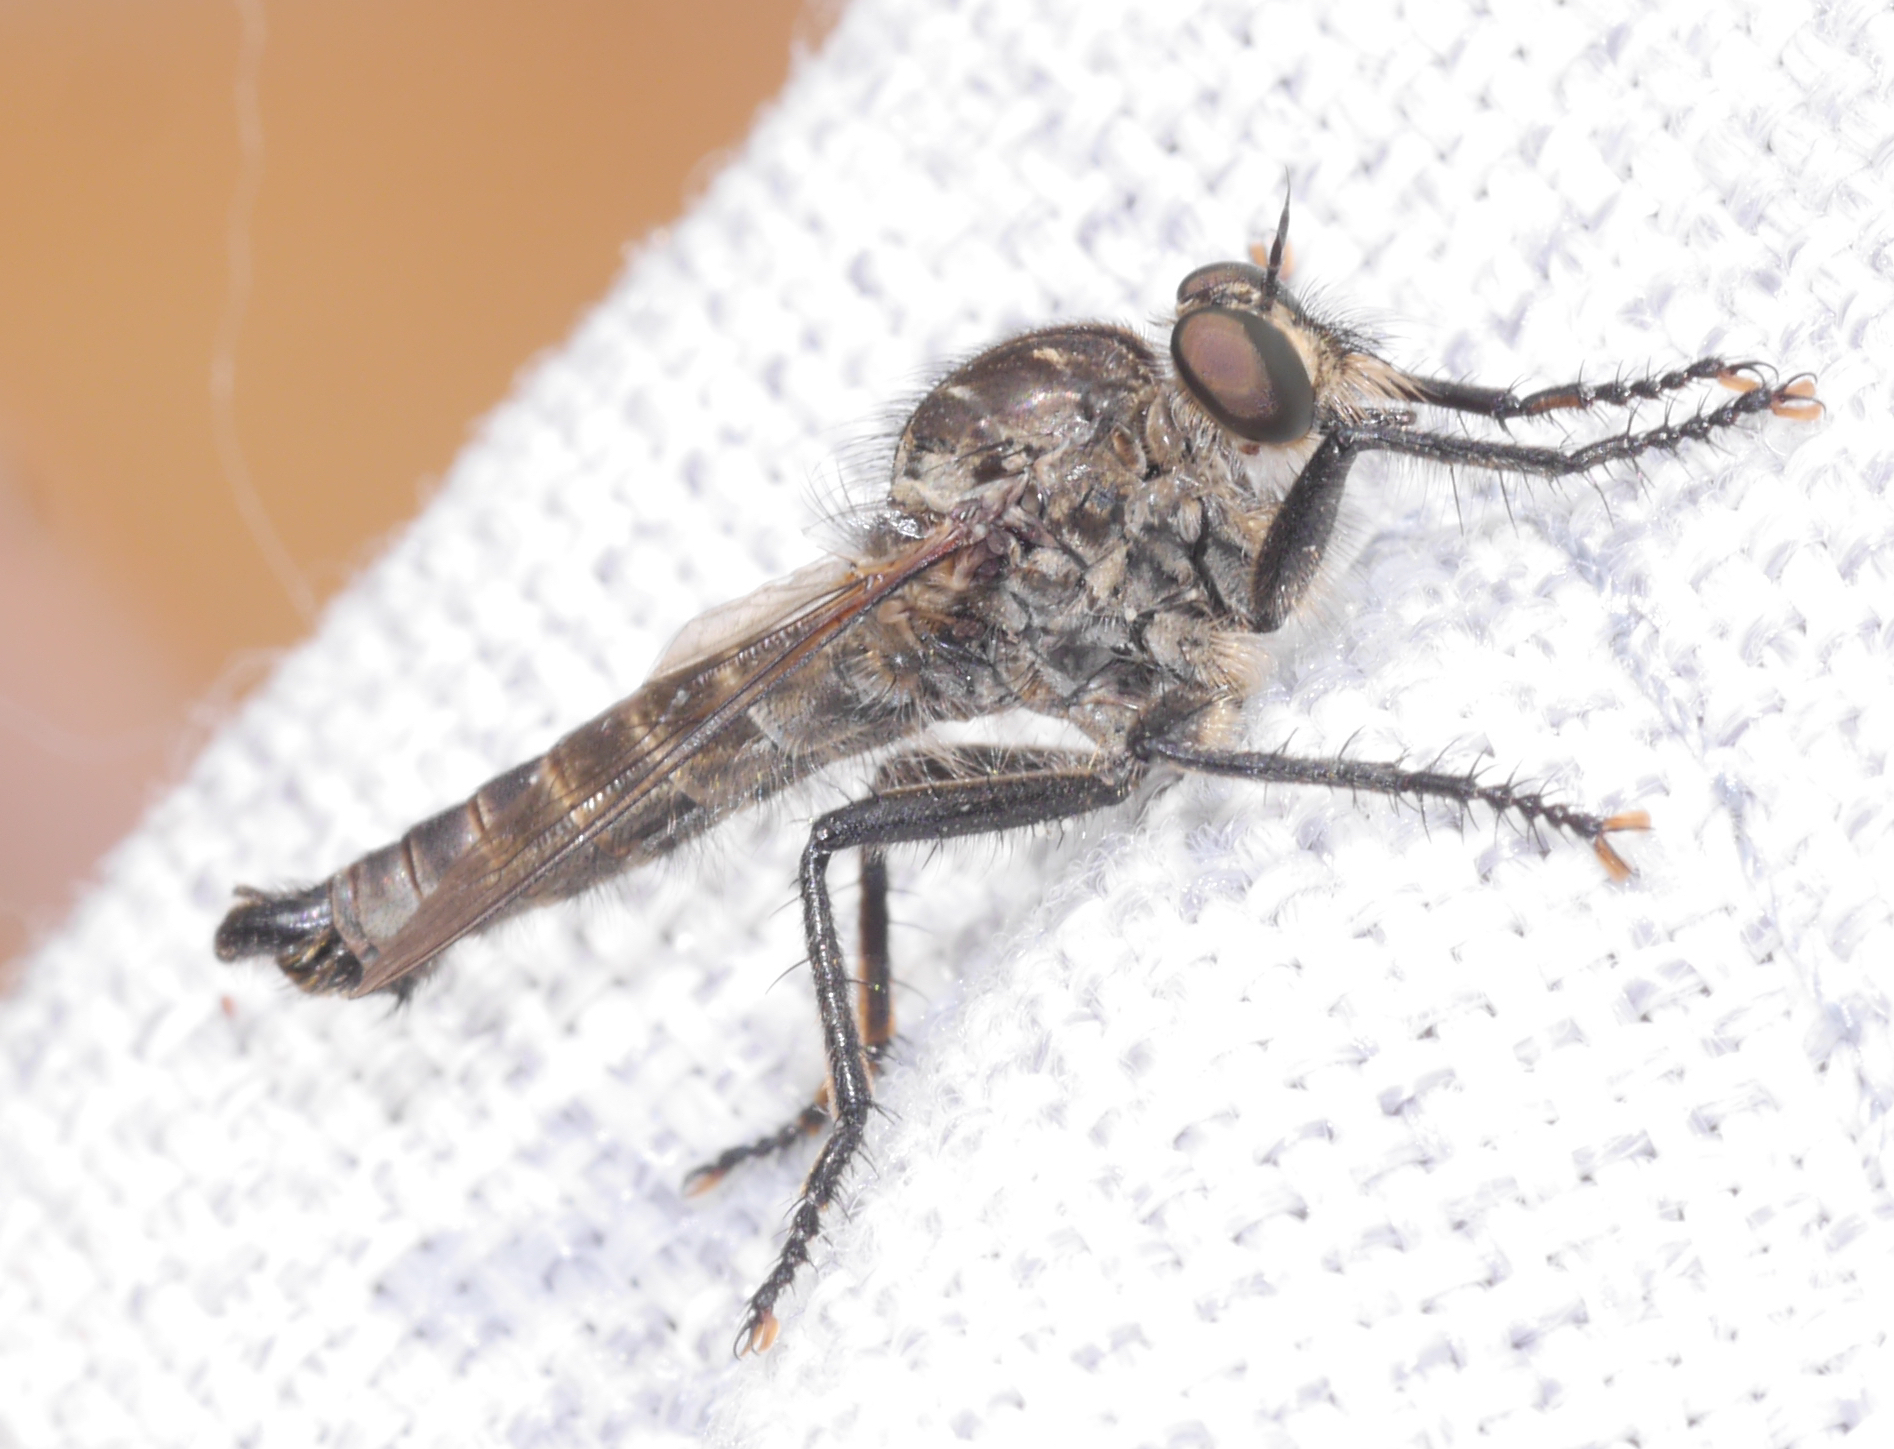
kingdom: Animalia
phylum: Arthropoda
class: Insecta
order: Diptera
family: Asilidae
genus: Machimus
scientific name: Machimus setibarbus
